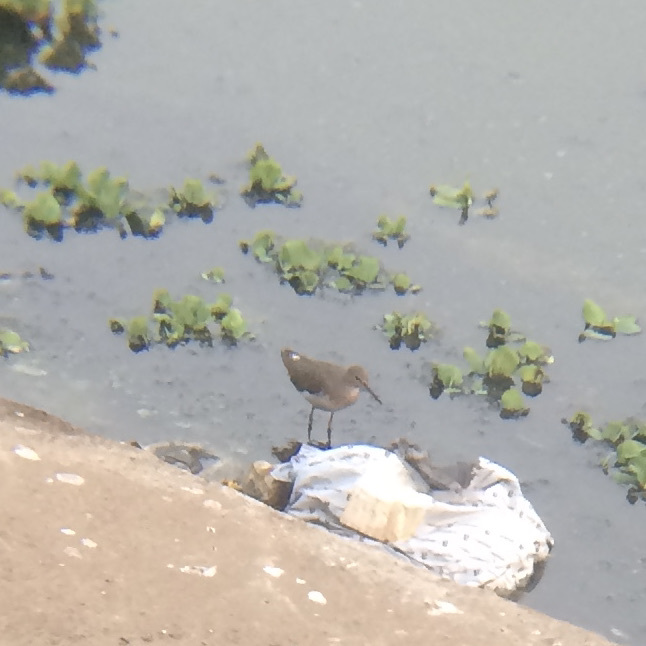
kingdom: Animalia
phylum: Chordata
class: Aves
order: Charadriiformes
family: Scolopacidae
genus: Tringa
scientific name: Tringa ochropus
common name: Green sandpiper
